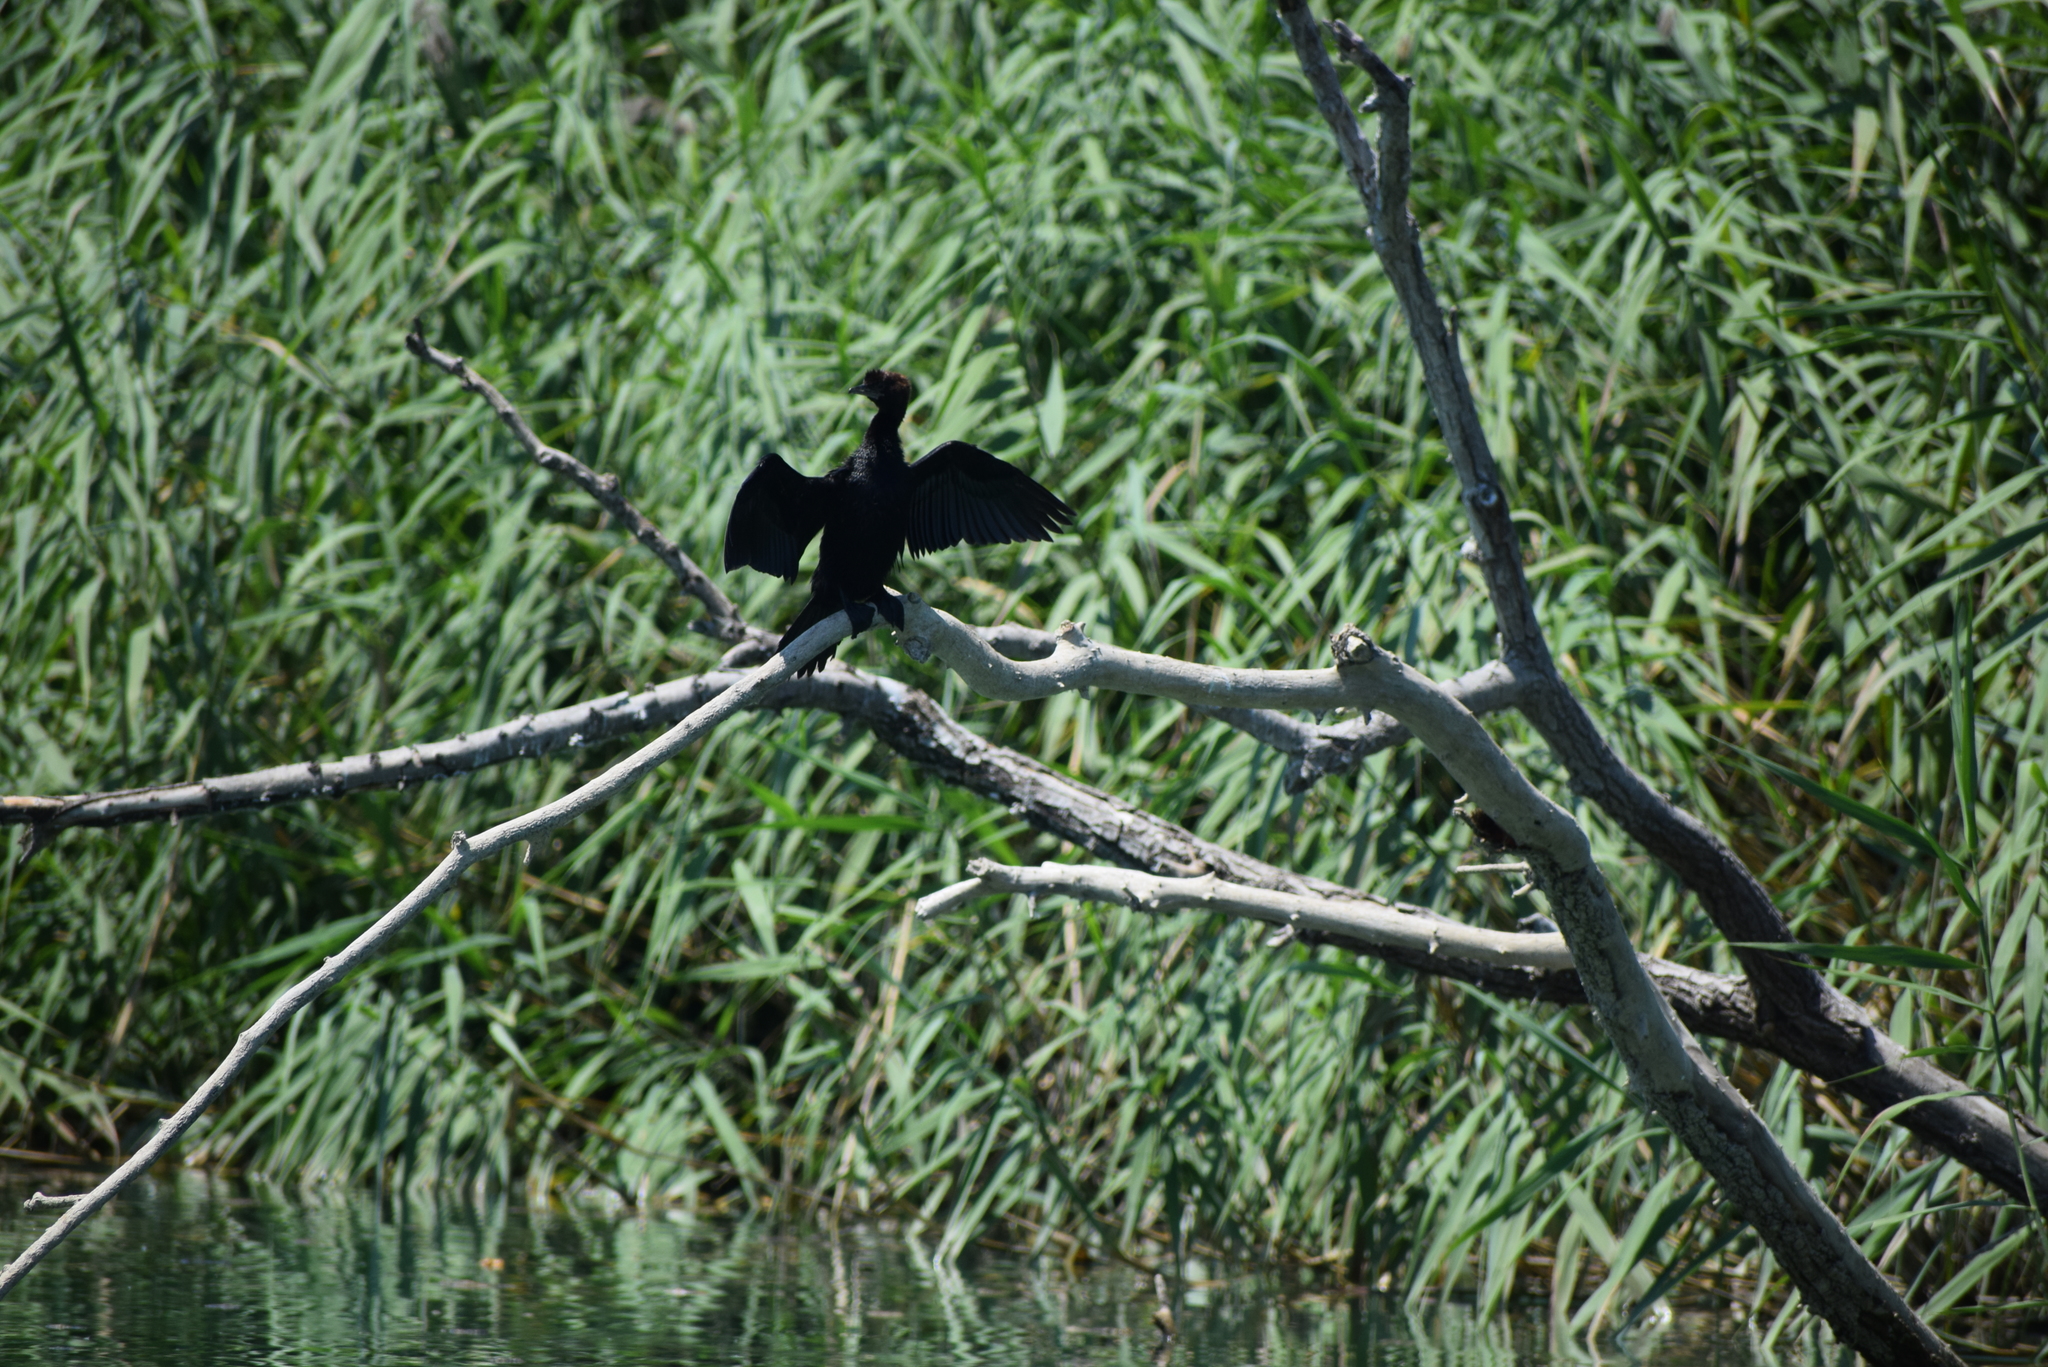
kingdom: Animalia
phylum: Chordata
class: Aves
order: Suliformes
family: Phalacrocoracidae
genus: Microcarbo
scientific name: Microcarbo pygmaeus
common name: Pygmy cormorant
